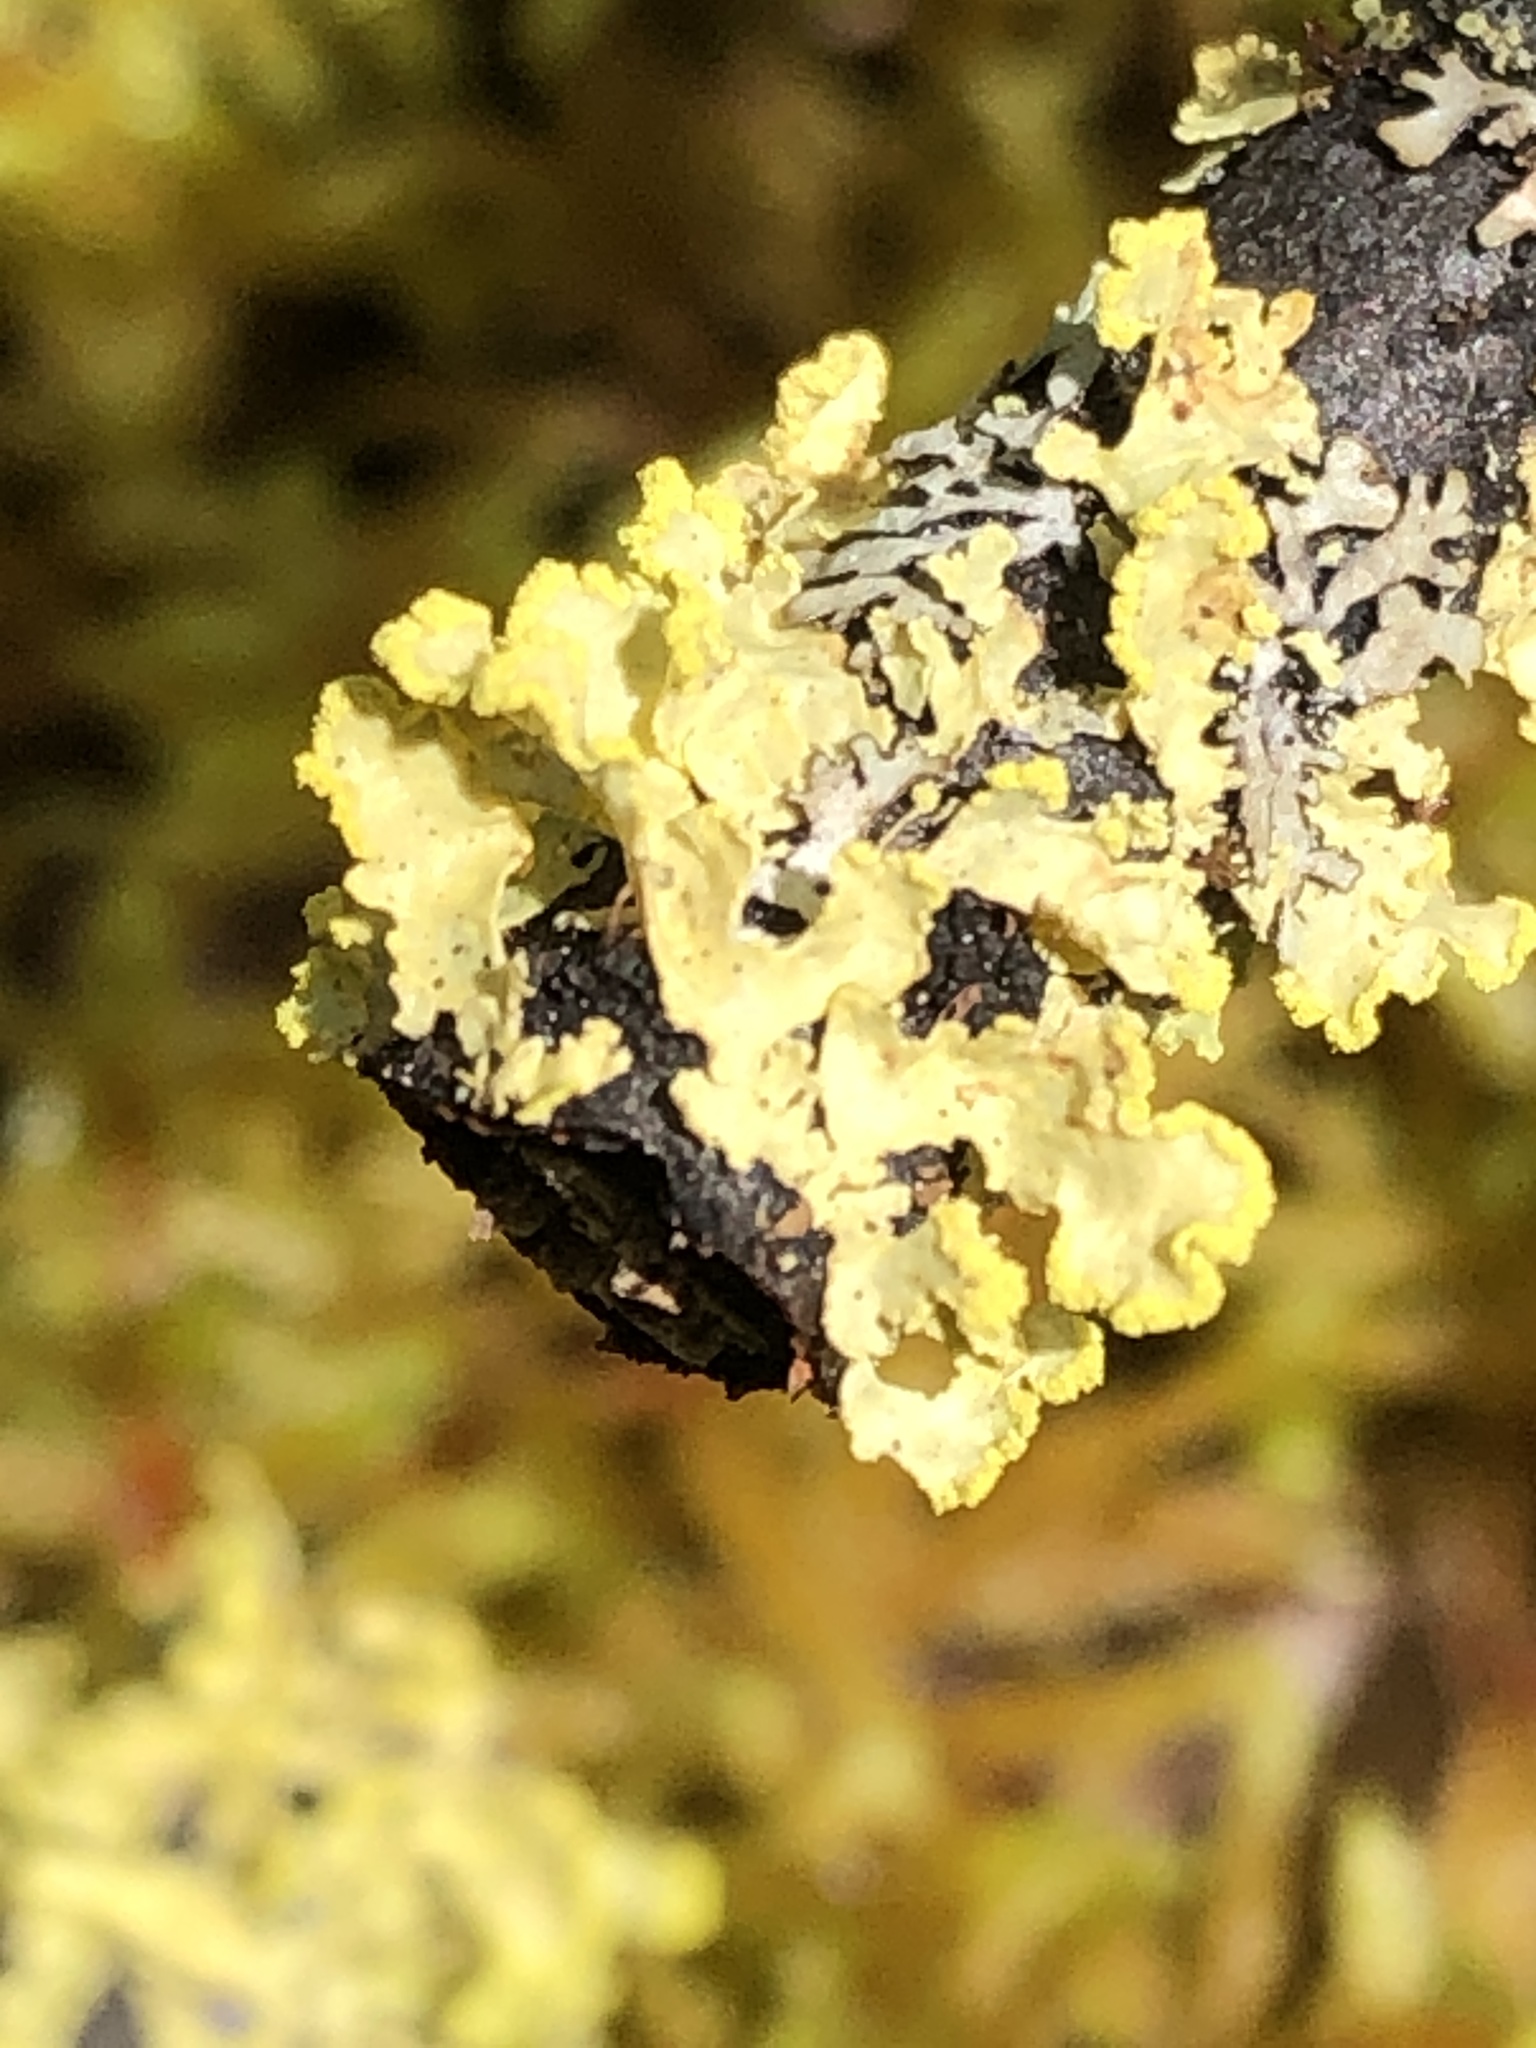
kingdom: Fungi
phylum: Ascomycota
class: Lecanoromycetes
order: Lecanorales
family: Parmeliaceae
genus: Vulpicida
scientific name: Vulpicida pinastri
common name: Powdered sunshine lichen
